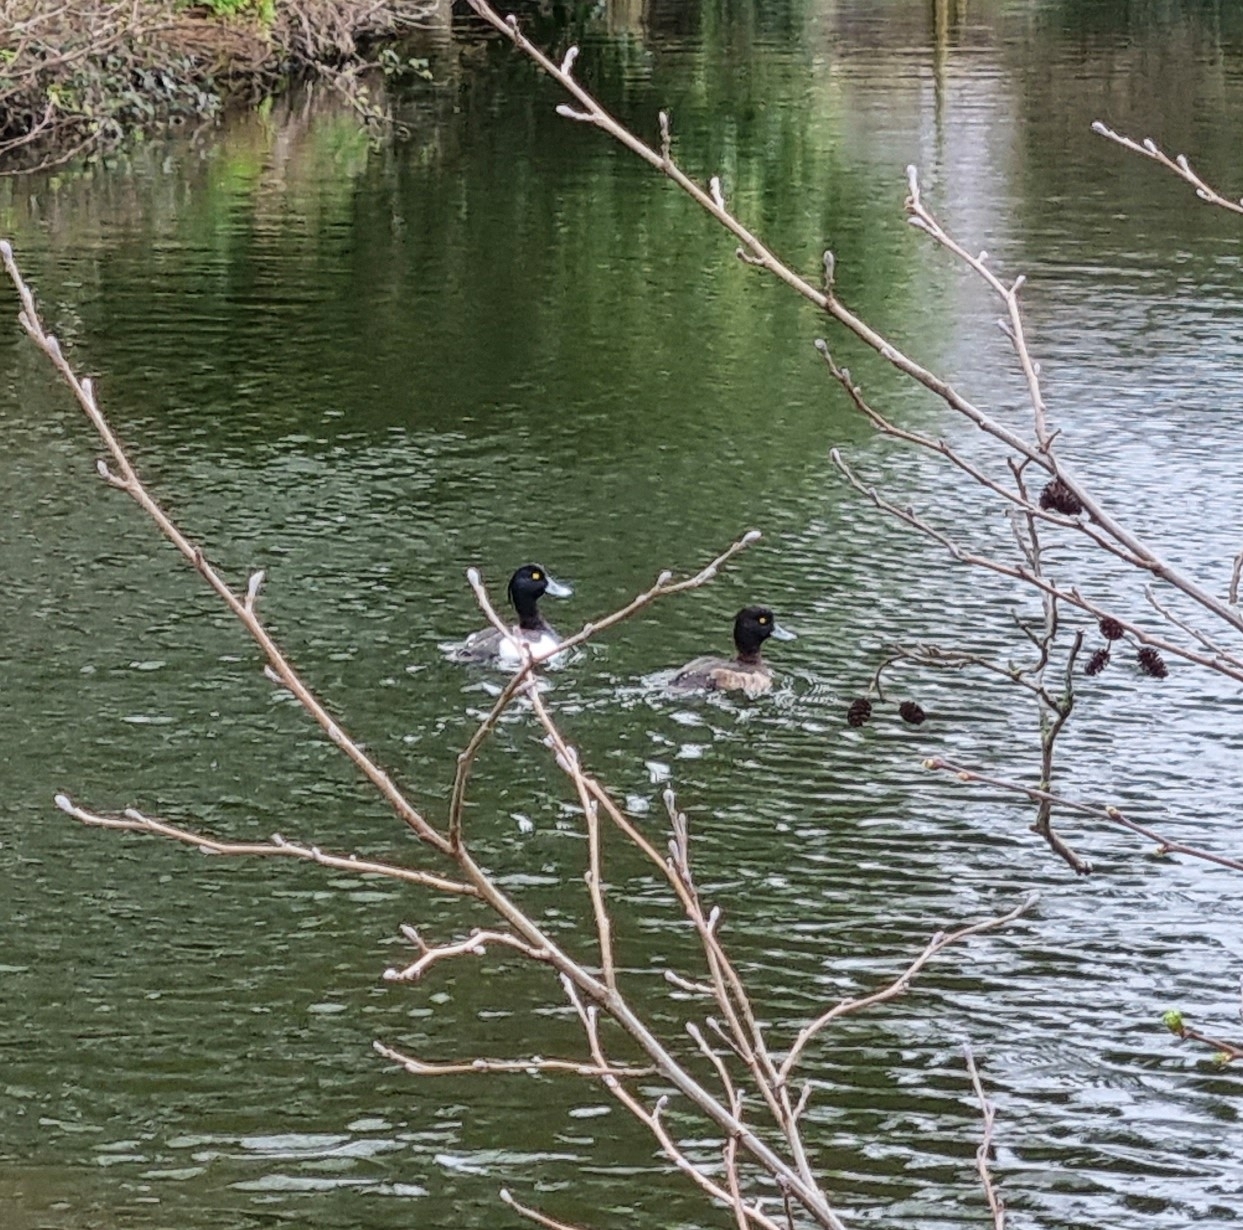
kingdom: Animalia
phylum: Chordata
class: Aves
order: Anseriformes
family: Anatidae
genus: Aythya
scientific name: Aythya fuligula
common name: Tufted duck
